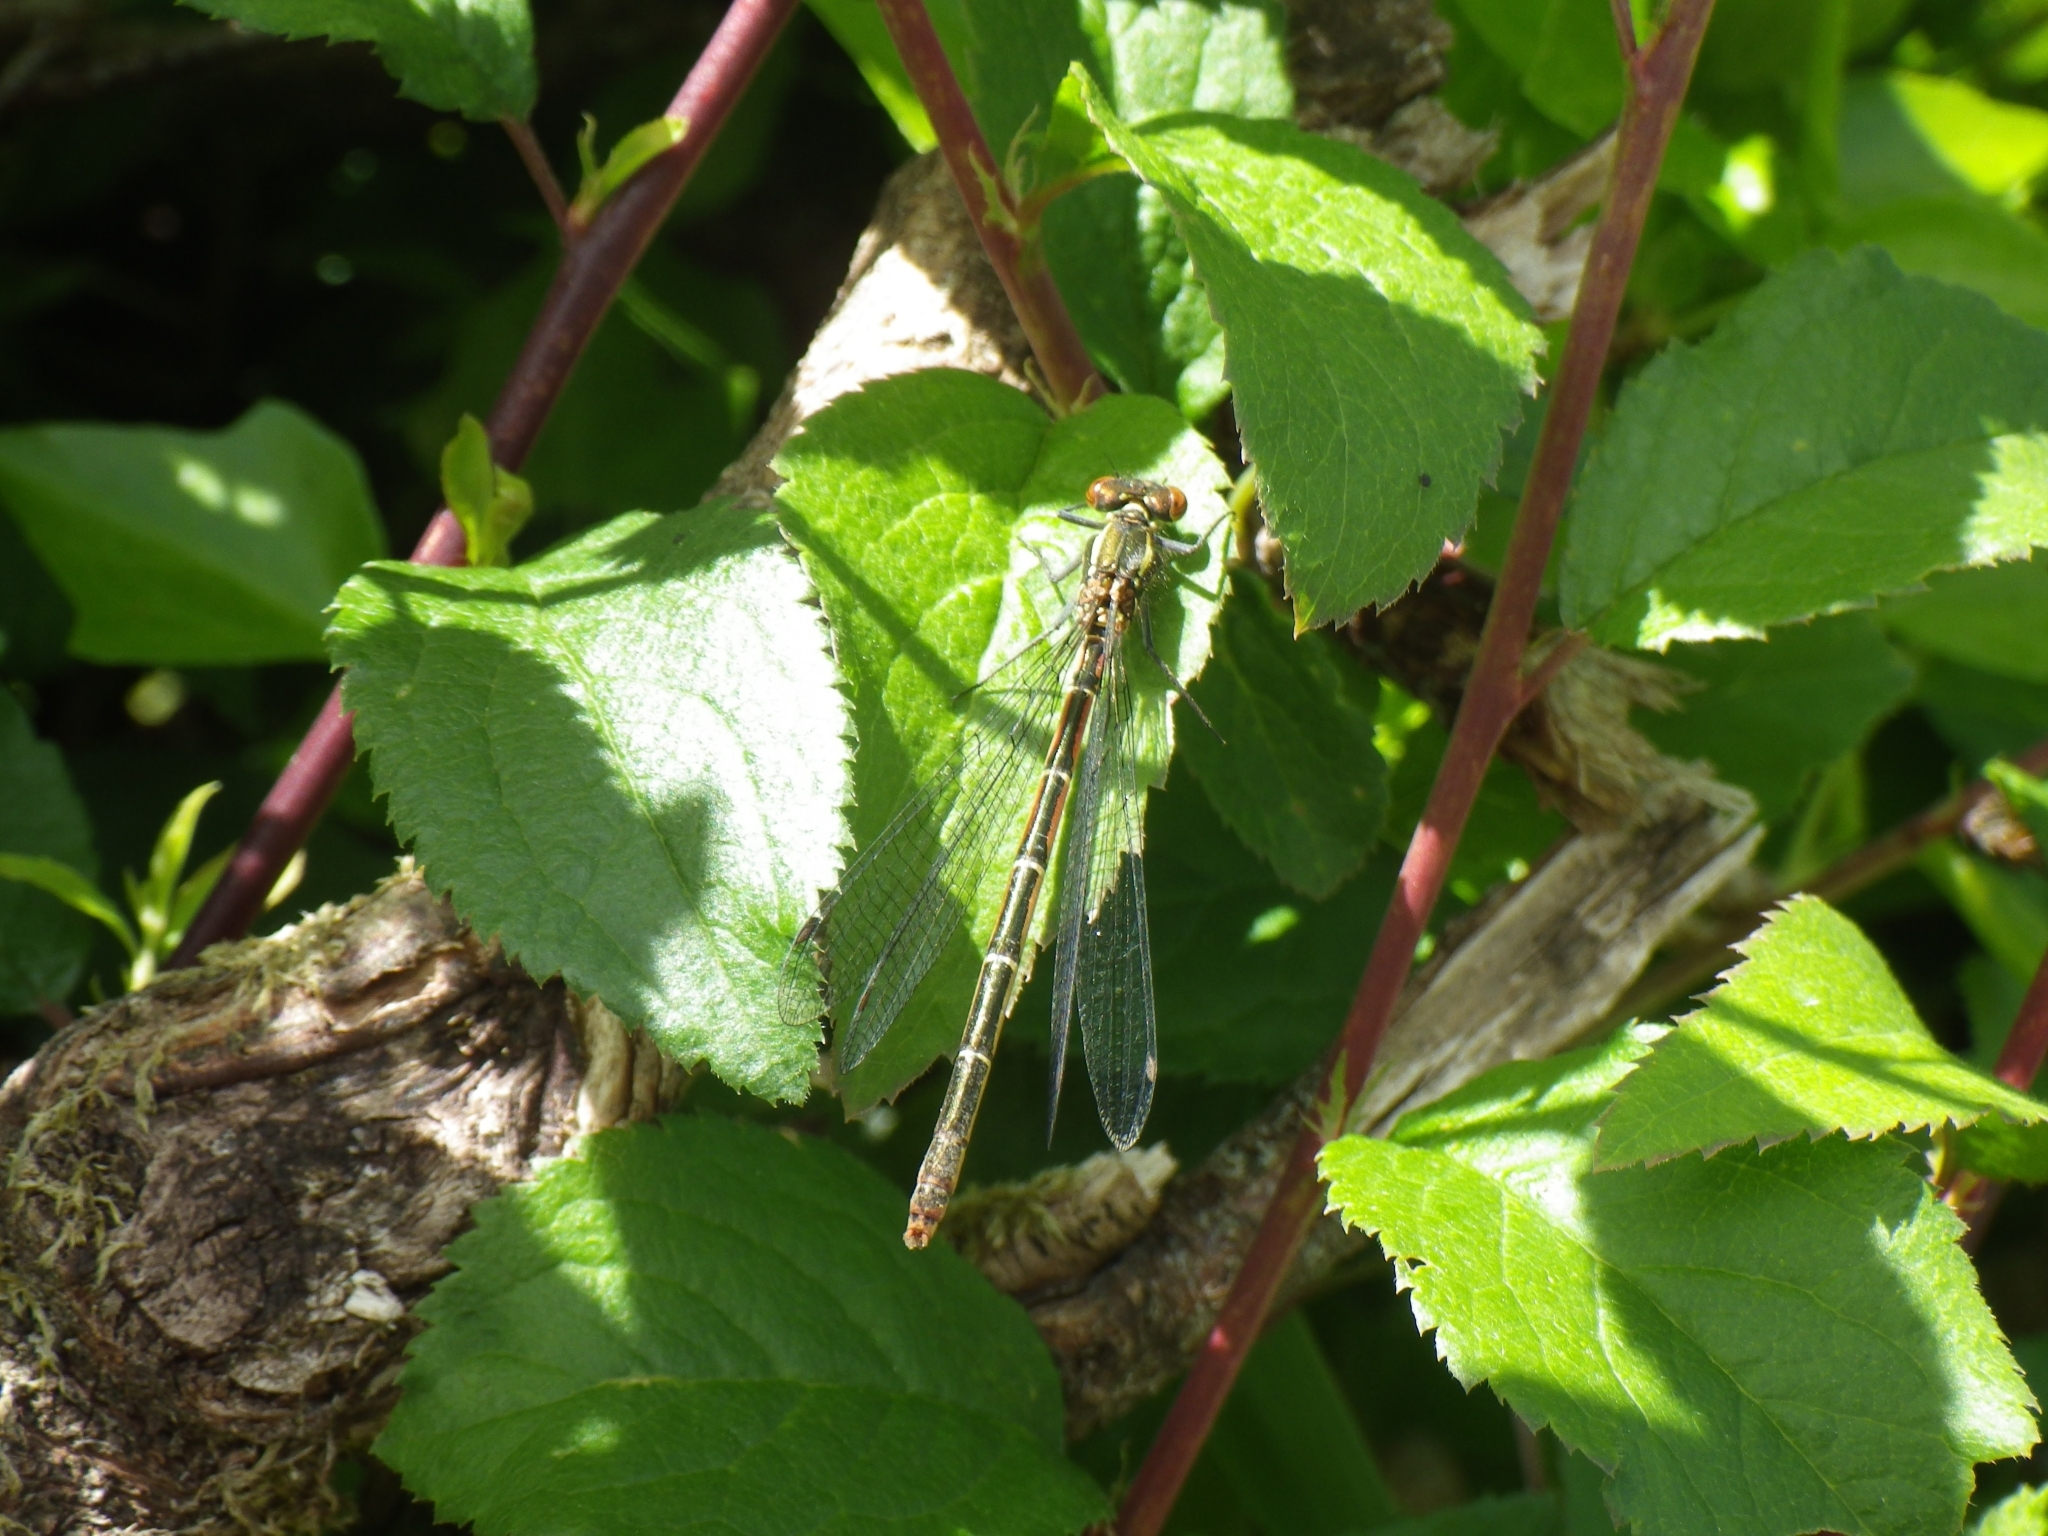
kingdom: Animalia
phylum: Arthropoda
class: Insecta
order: Odonata
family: Coenagrionidae
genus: Pyrrhosoma
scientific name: Pyrrhosoma nymphula
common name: Large red damsel
